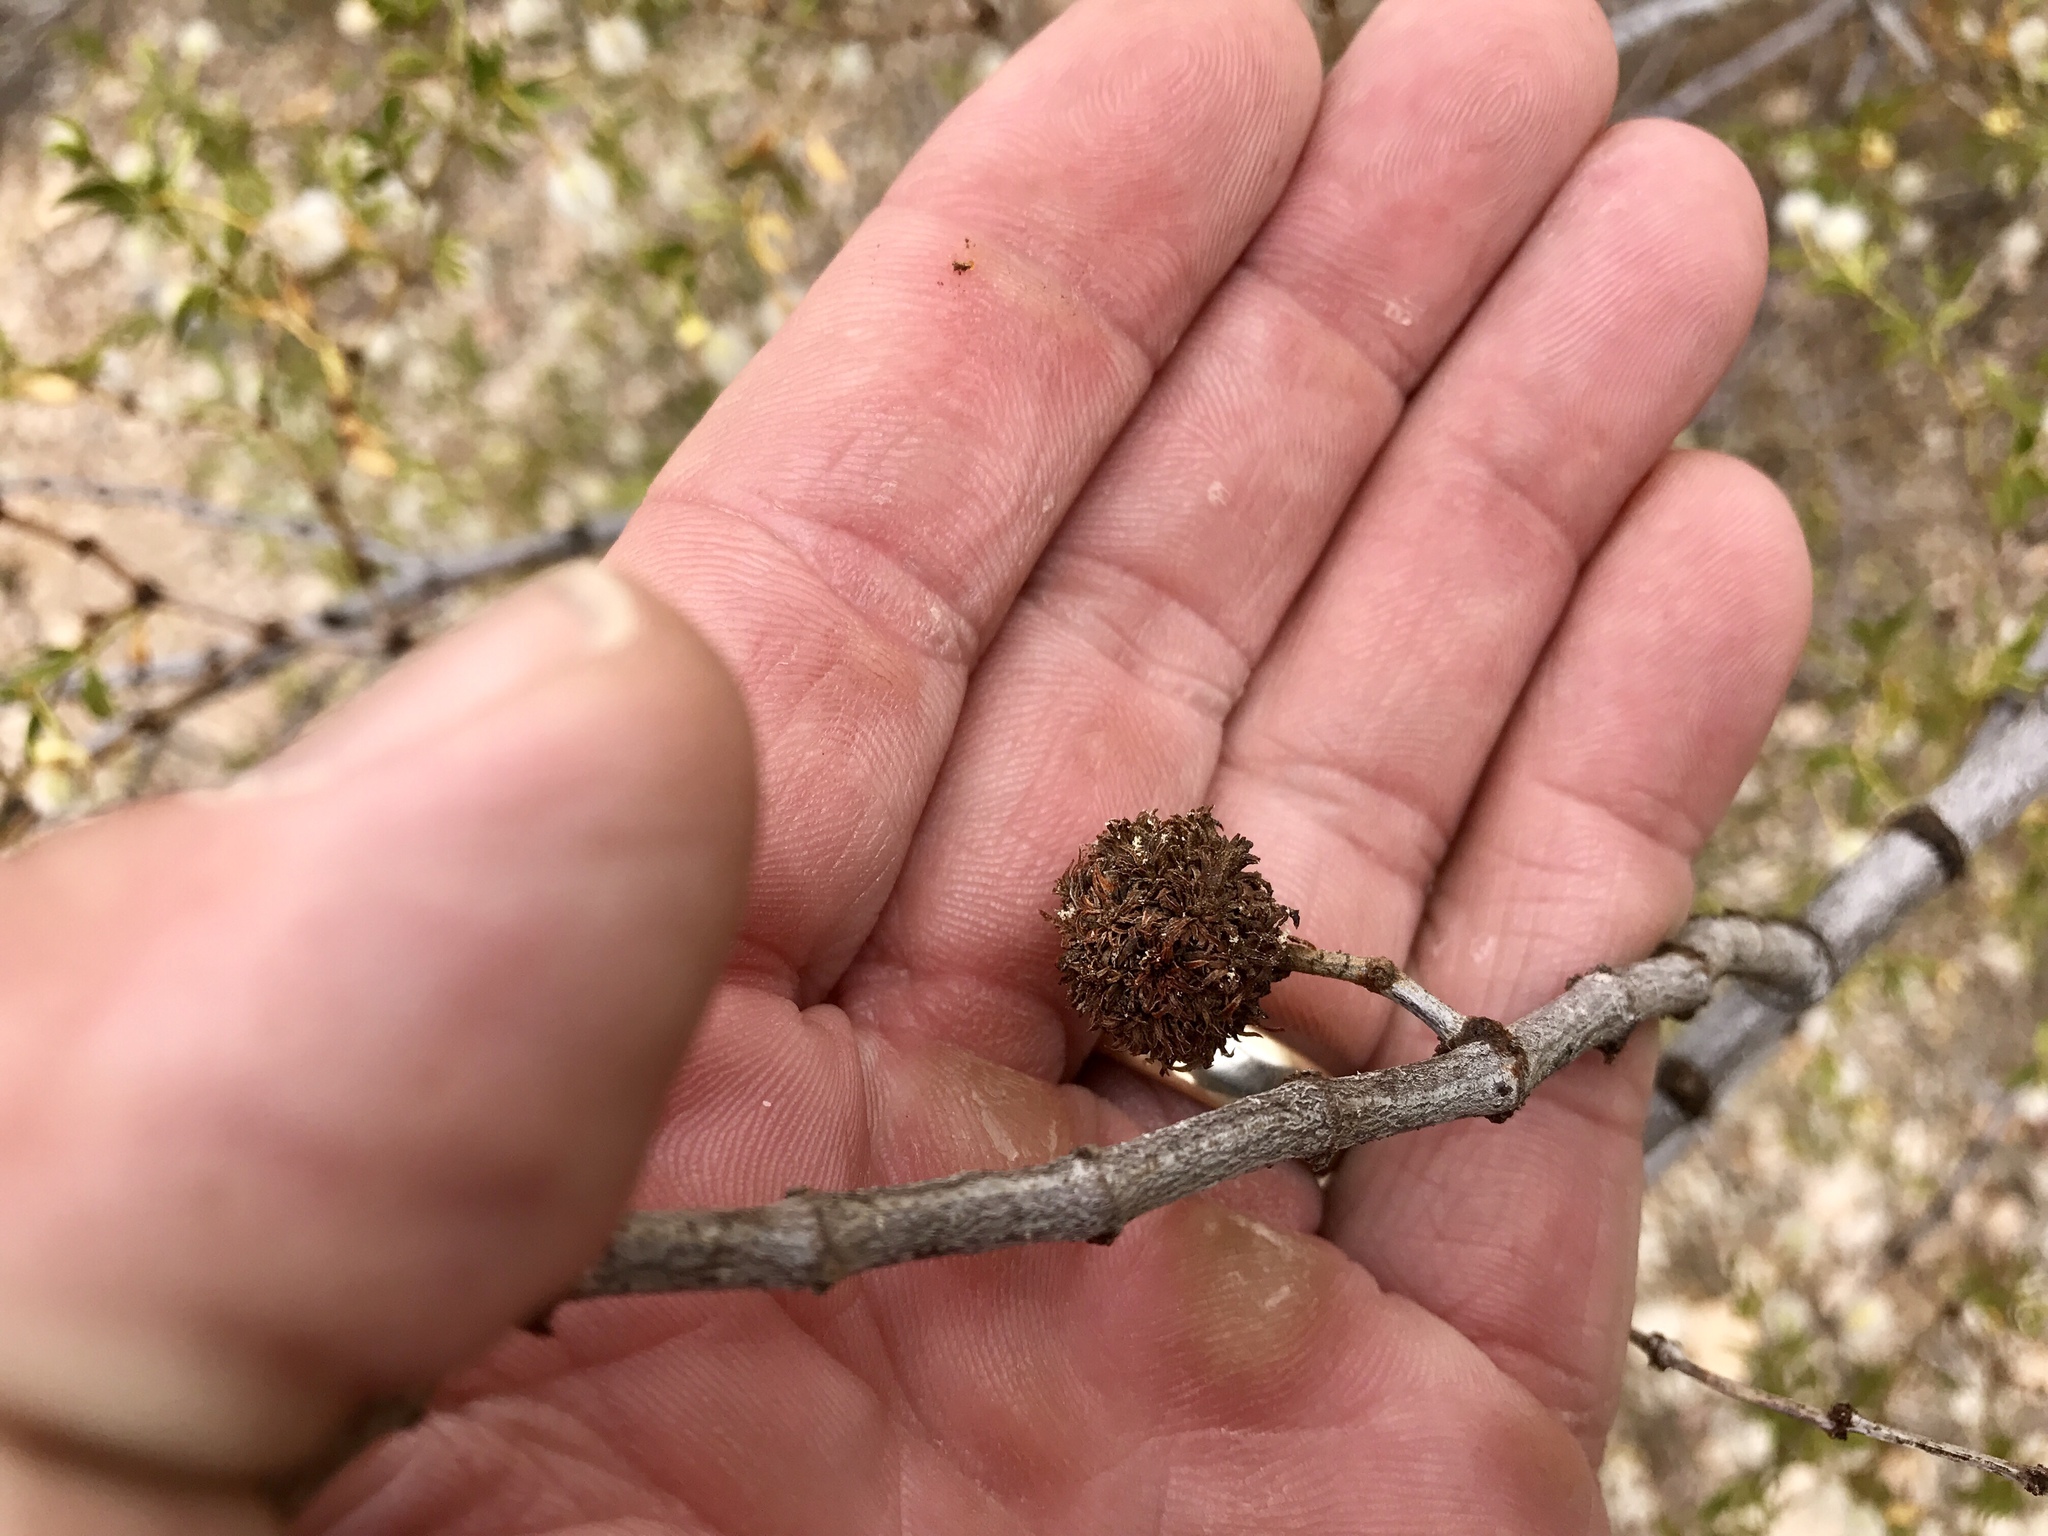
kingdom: Animalia
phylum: Arthropoda
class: Insecta
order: Diptera
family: Cecidomyiidae
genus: Asphondylia
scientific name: Asphondylia auripila
